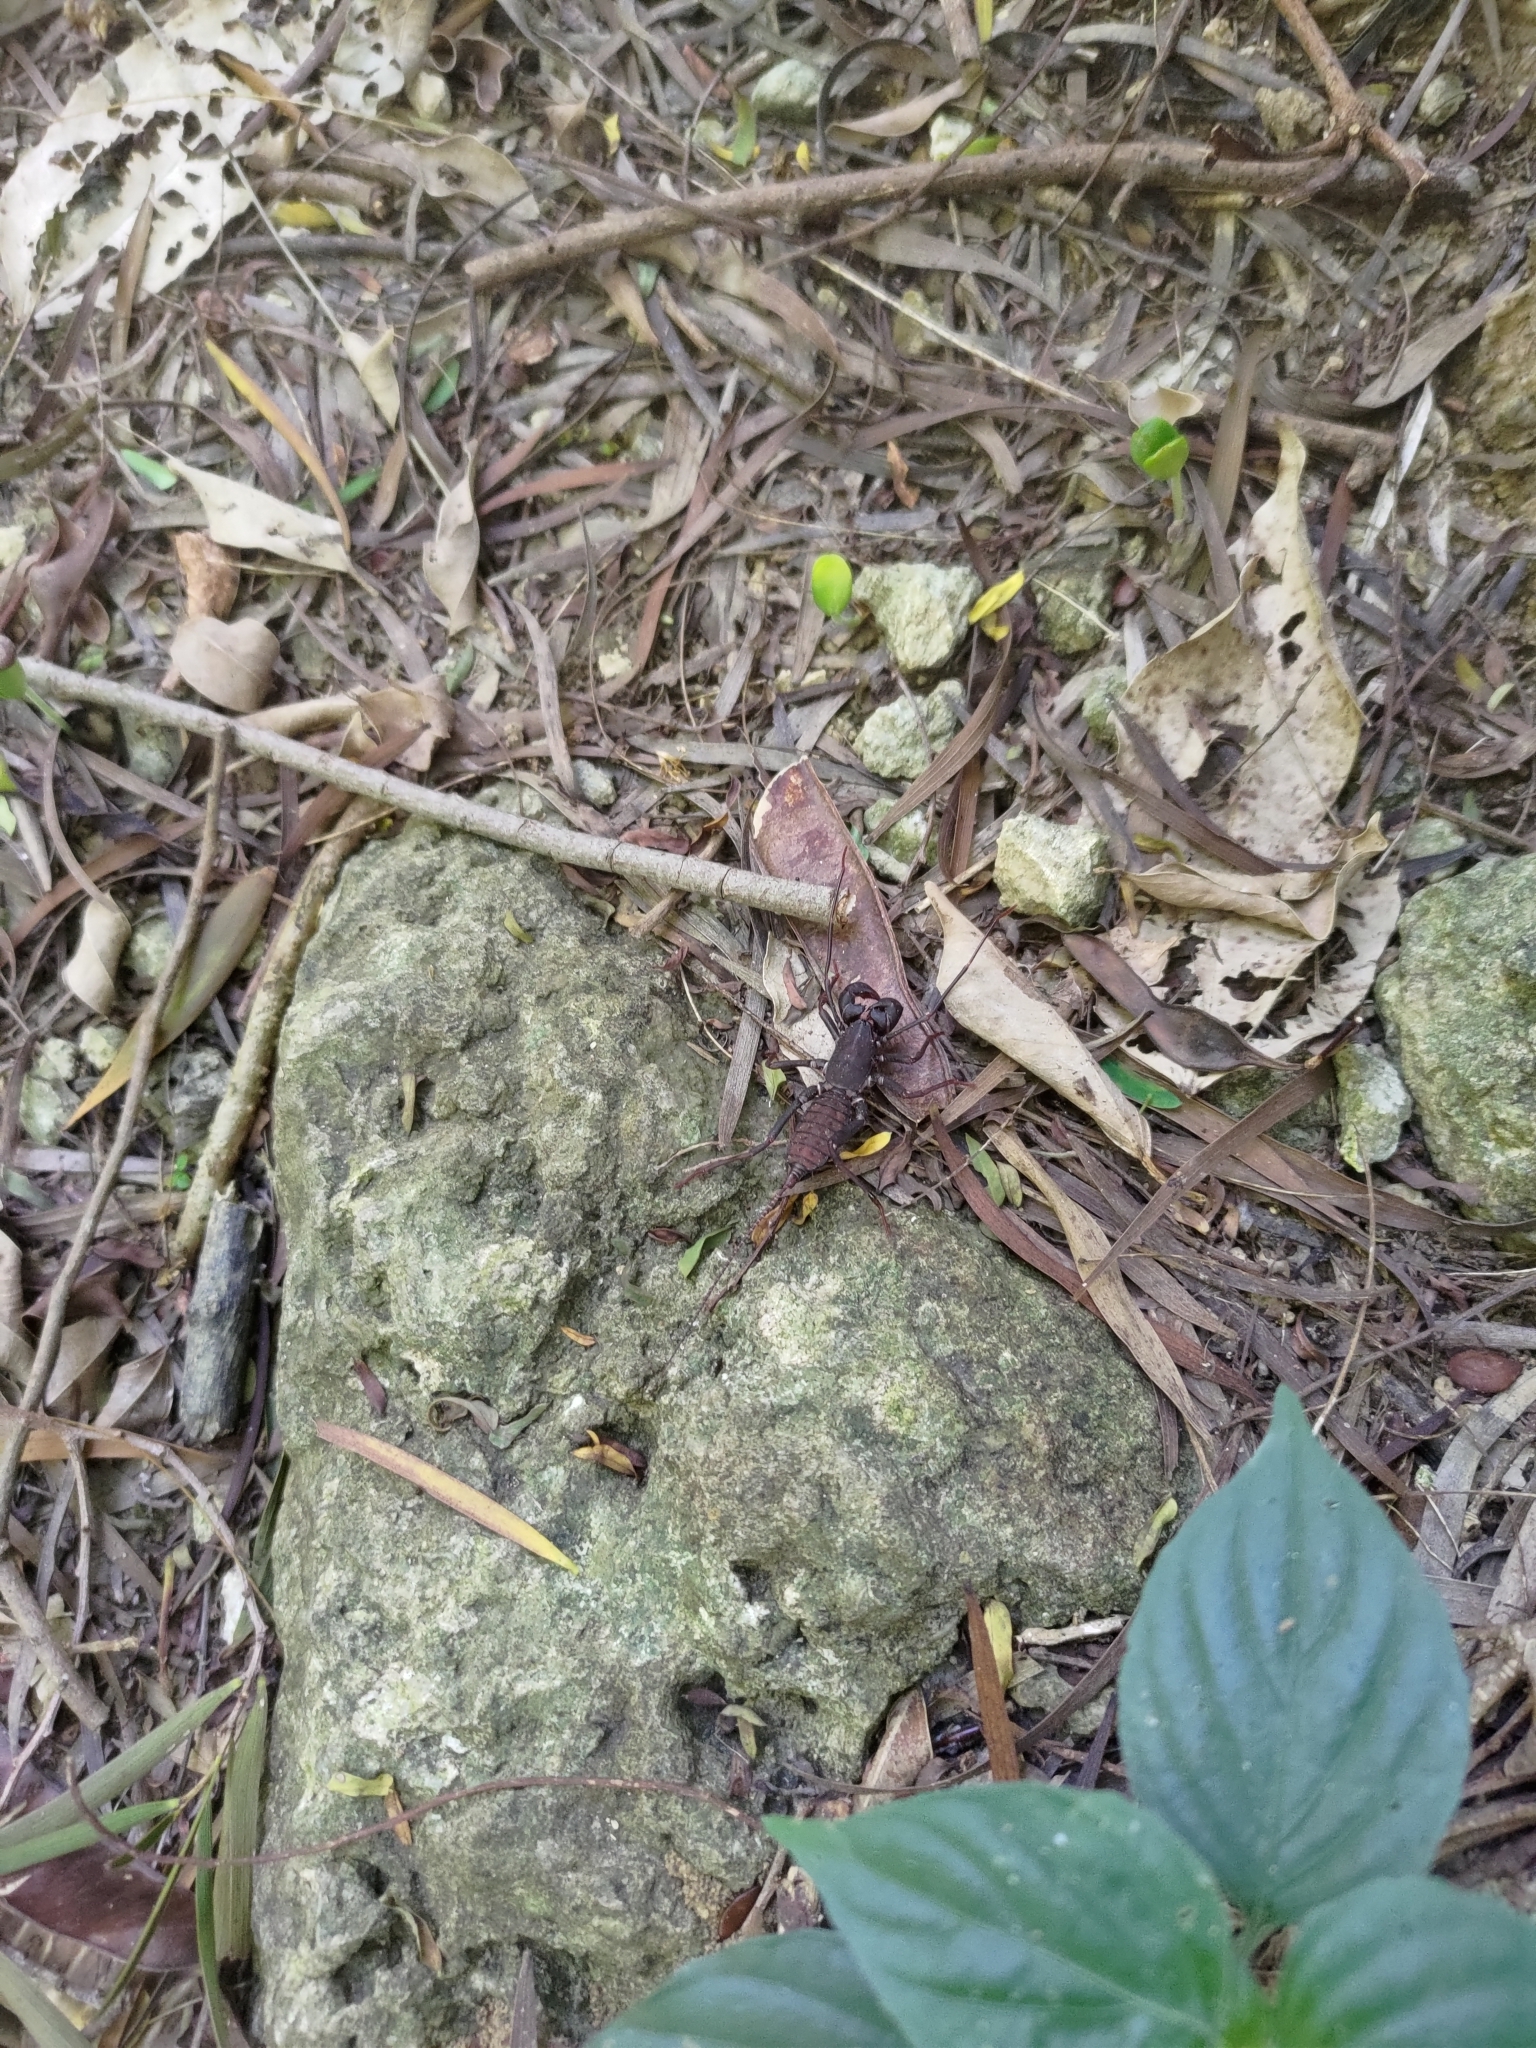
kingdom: Animalia
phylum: Arthropoda
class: Arachnida
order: Uropygi
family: Thelyphonidae
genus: Typopeltis
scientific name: Typopeltis crucifer
